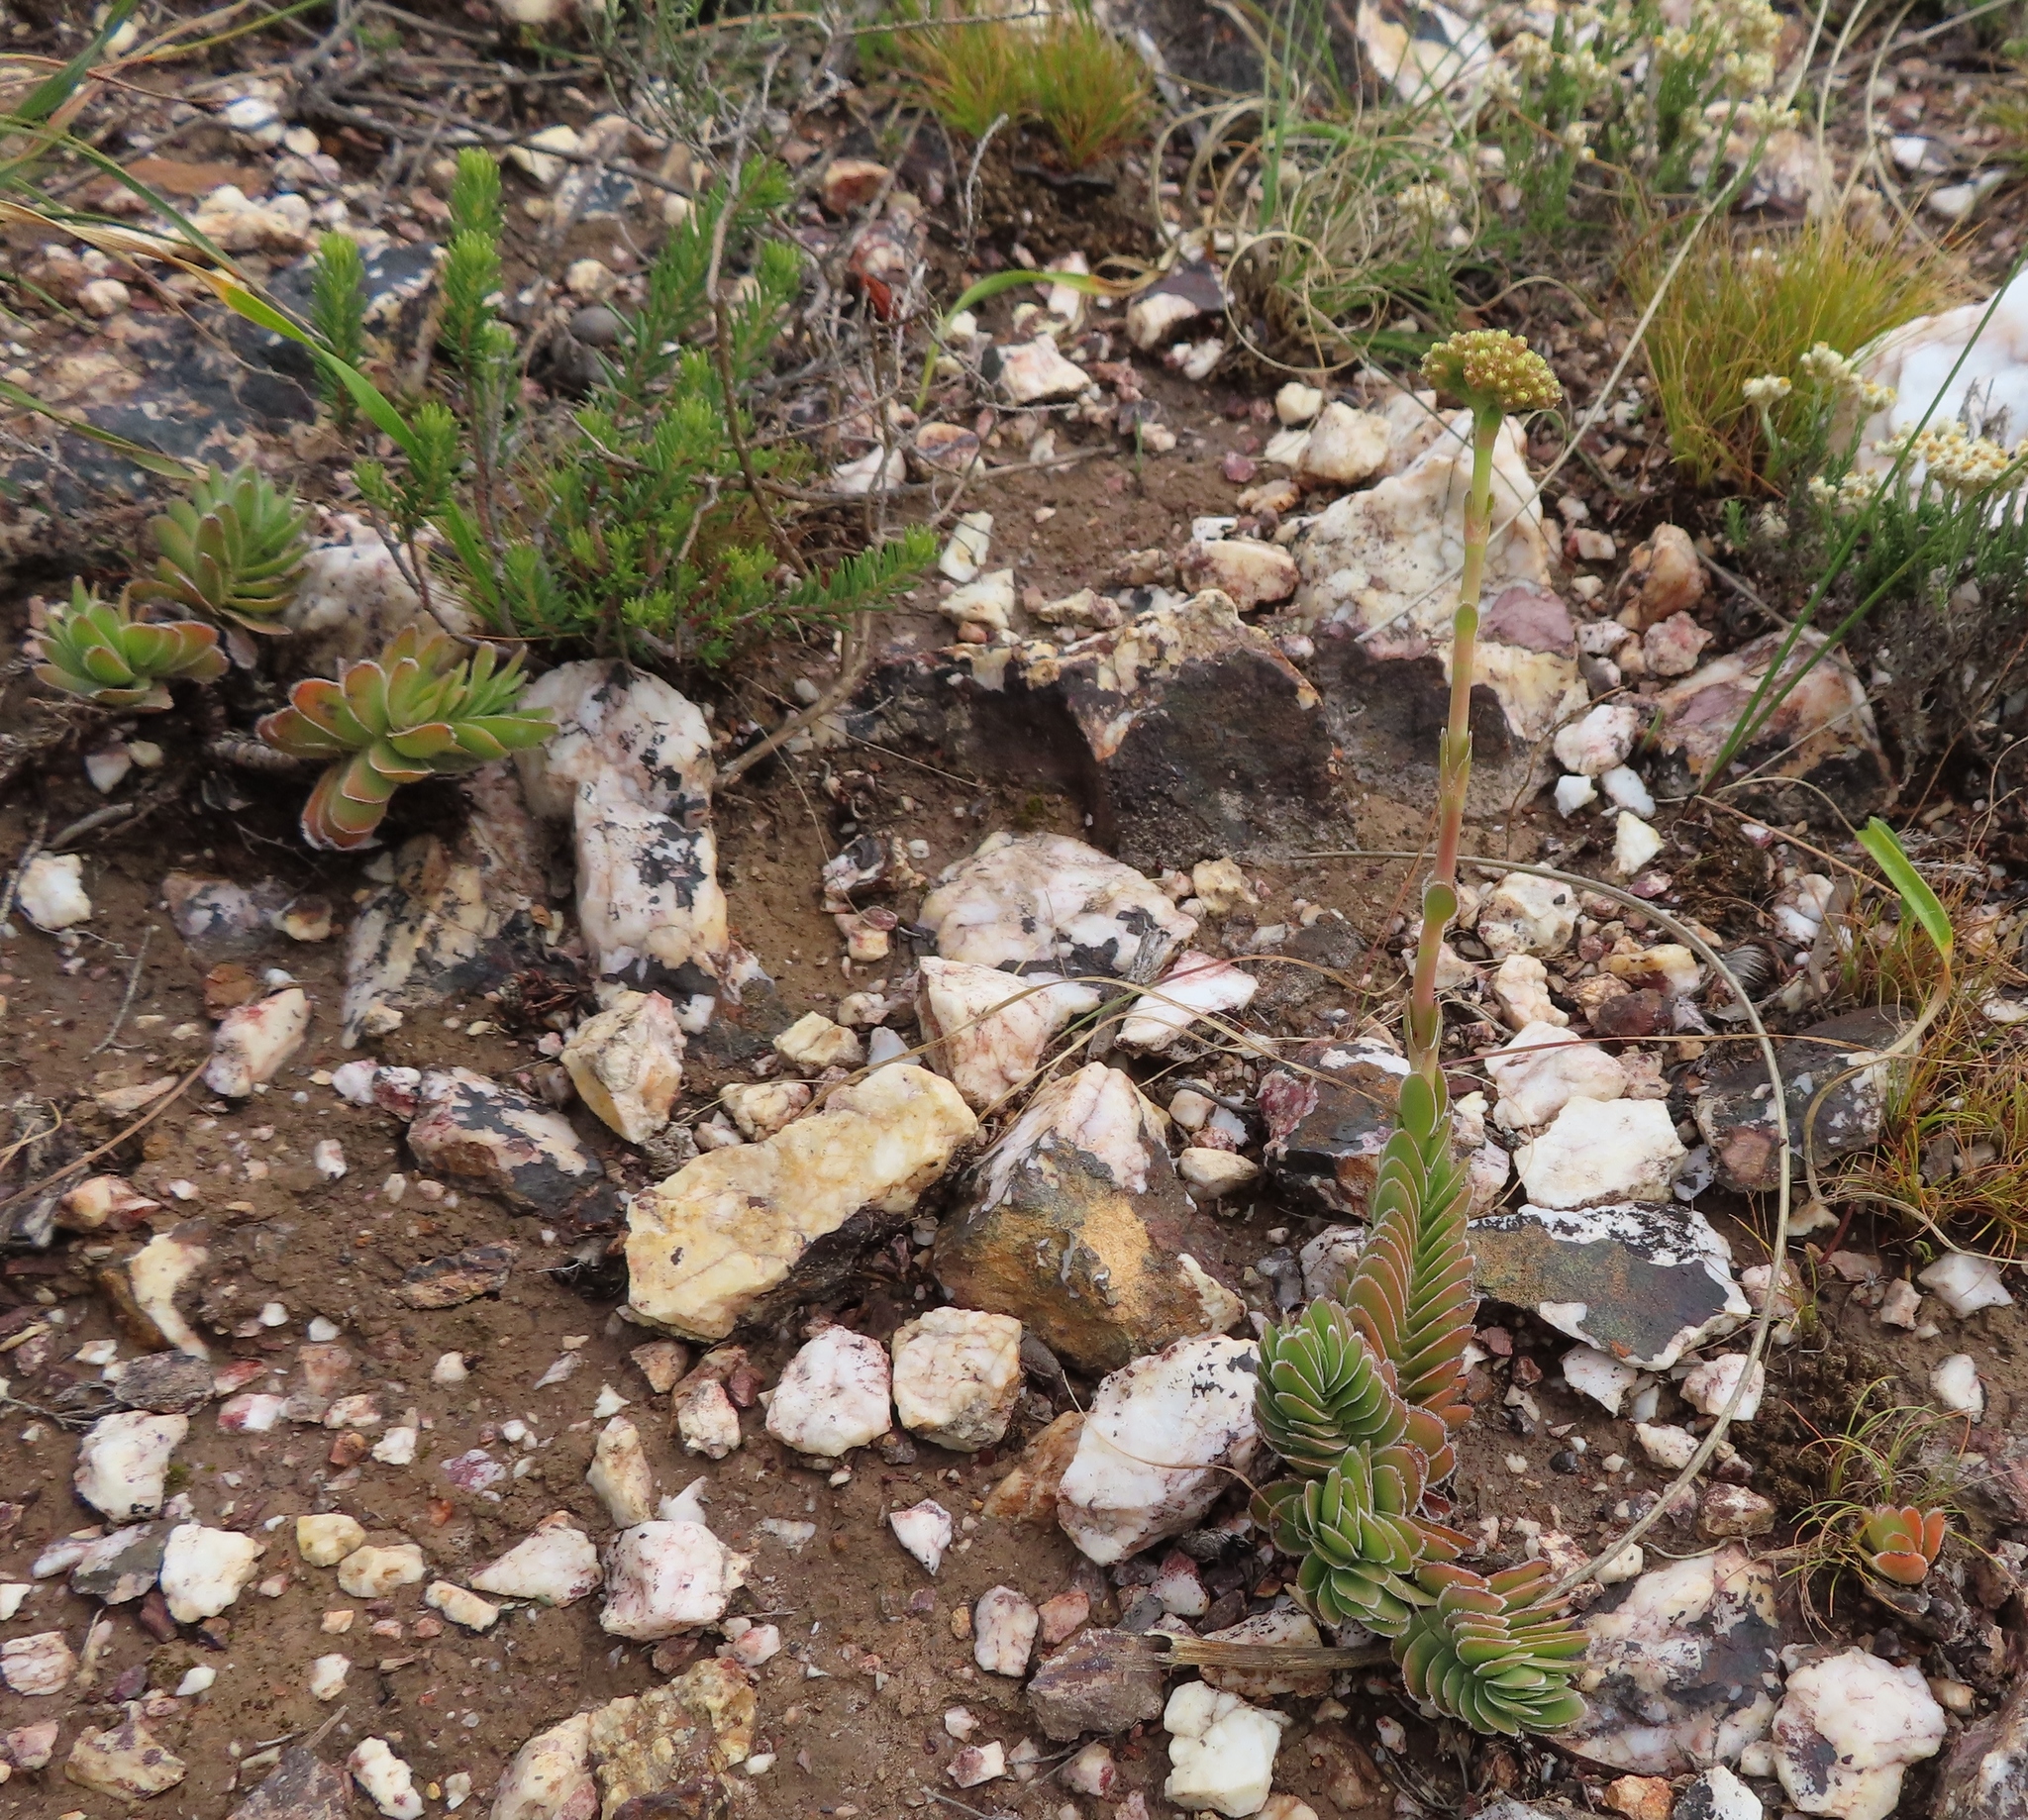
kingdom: Plantae
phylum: Tracheophyta
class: Magnoliopsida
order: Saxifragales
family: Crassulaceae
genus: Crassula
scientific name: Crassula nudicaulis
